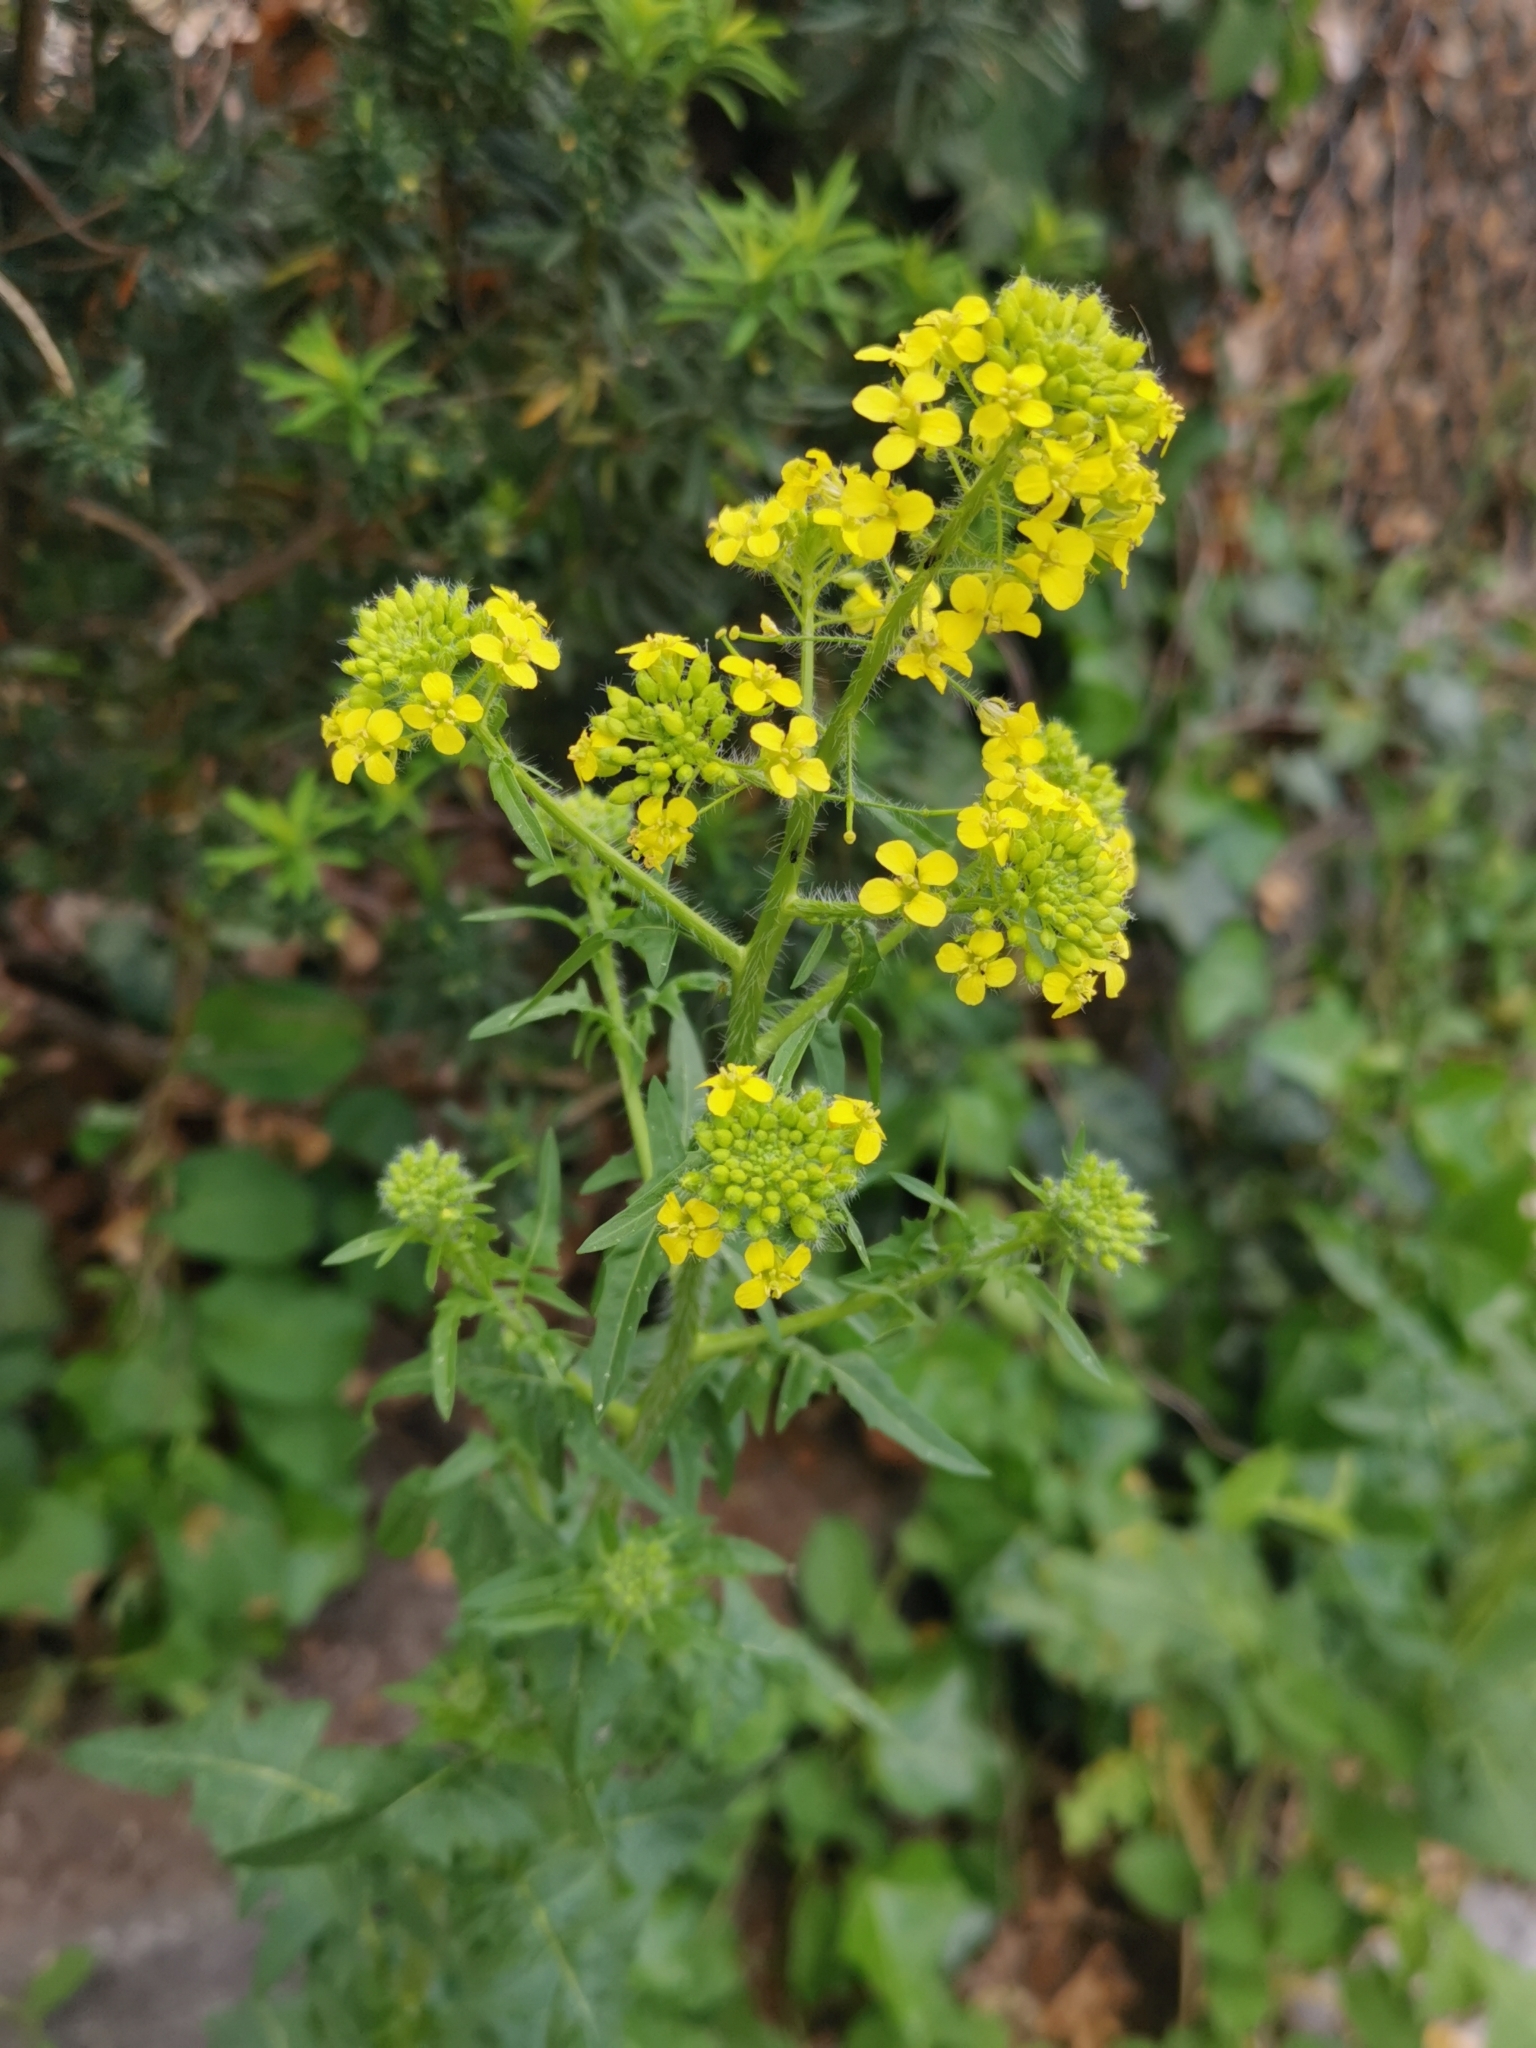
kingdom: Plantae
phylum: Tracheophyta
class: Magnoliopsida
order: Brassicales
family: Brassicaceae
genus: Sisymbrium
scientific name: Sisymbrium loeselii
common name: False london-rocket
